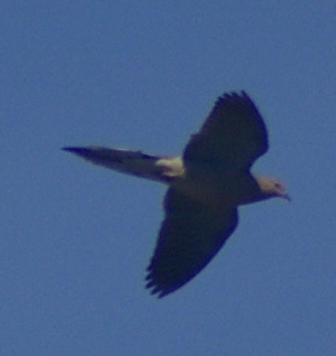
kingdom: Animalia
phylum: Chordata
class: Aves
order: Columbiformes
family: Columbidae
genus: Zenaida
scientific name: Zenaida macroura
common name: Mourning dove
